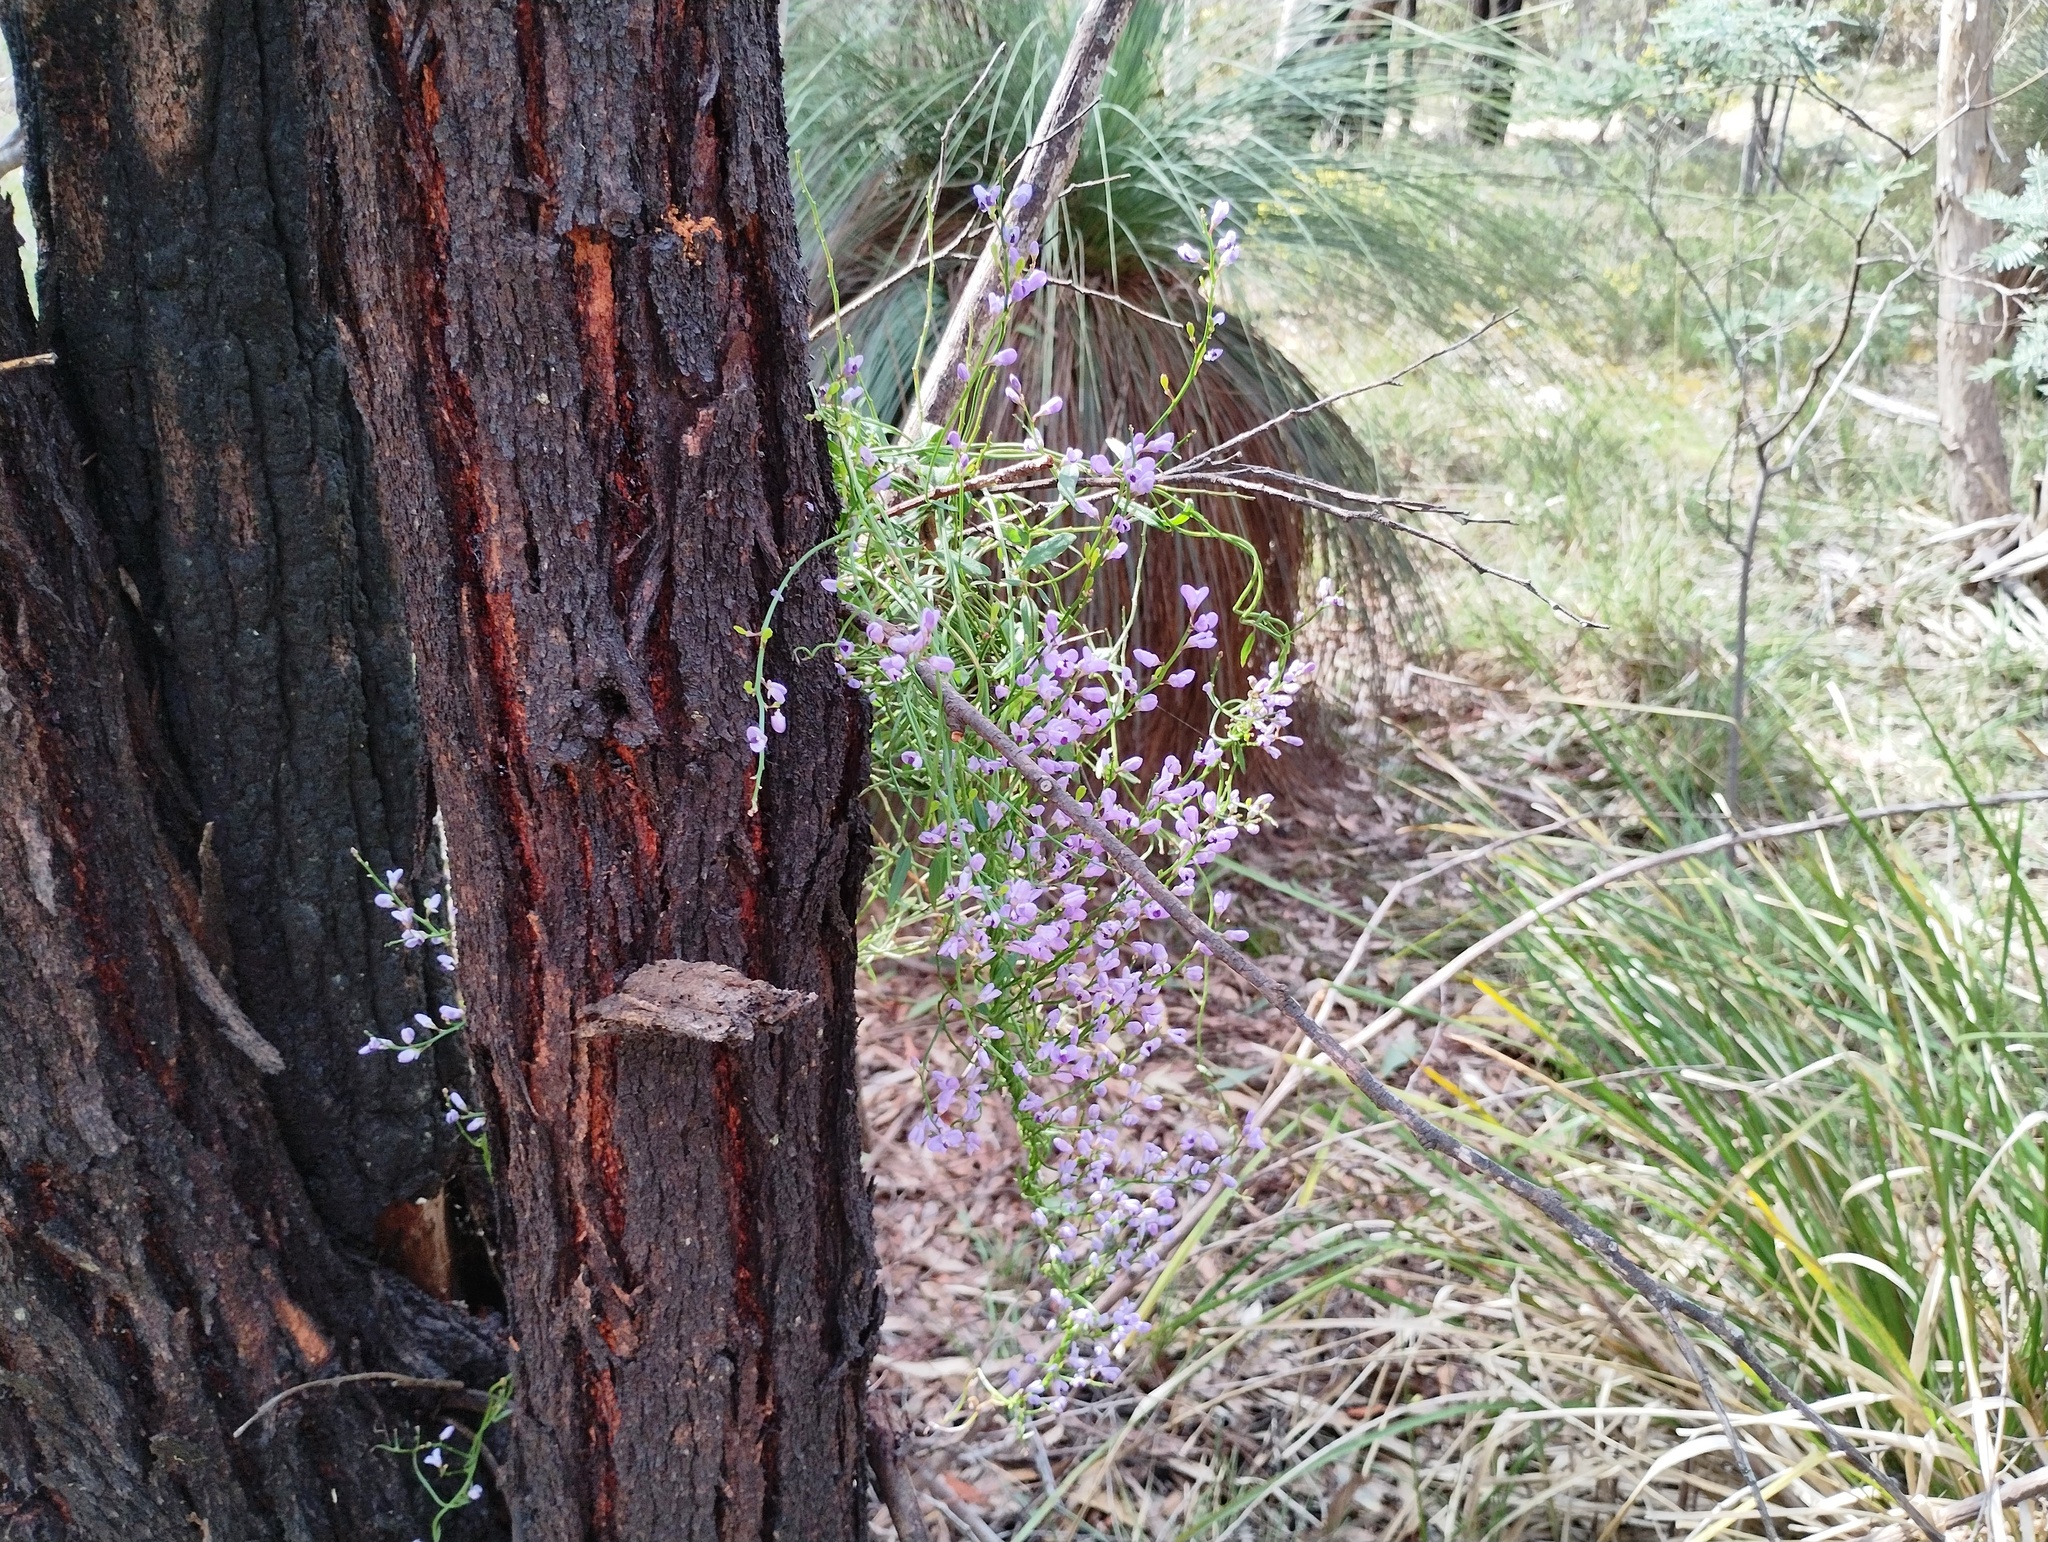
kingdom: Plantae
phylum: Tracheophyta
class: Magnoliopsida
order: Fabales
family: Polygalaceae
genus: Comesperma
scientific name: Comesperma volubile
